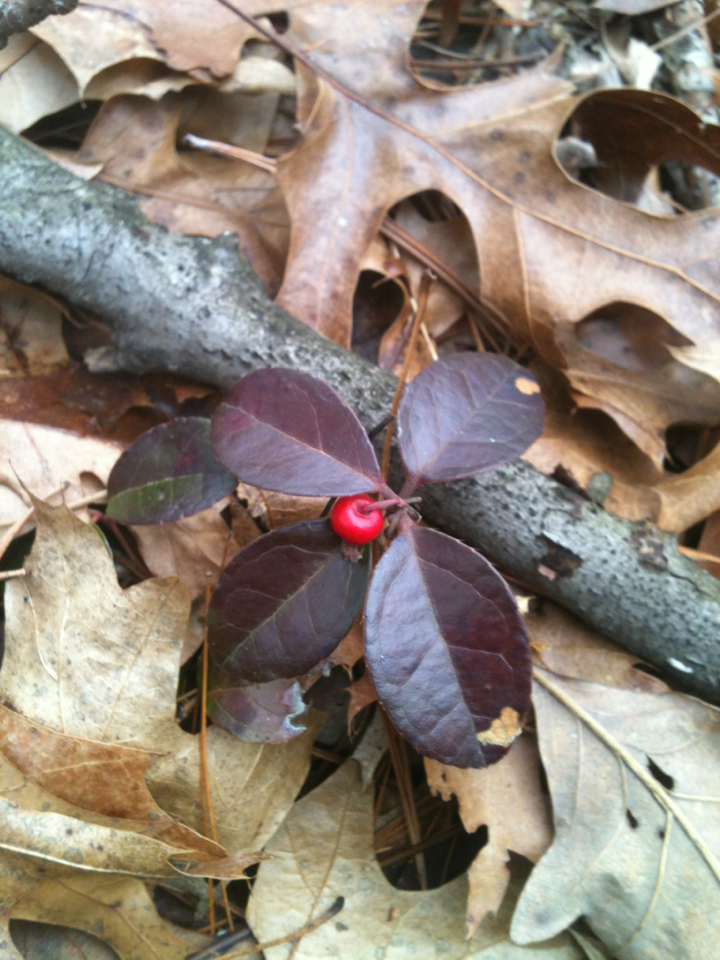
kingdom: Plantae
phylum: Tracheophyta
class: Magnoliopsida
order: Ericales
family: Ericaceae
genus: Gaultheria
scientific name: Gaultheria procumbens
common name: Checkerberry
